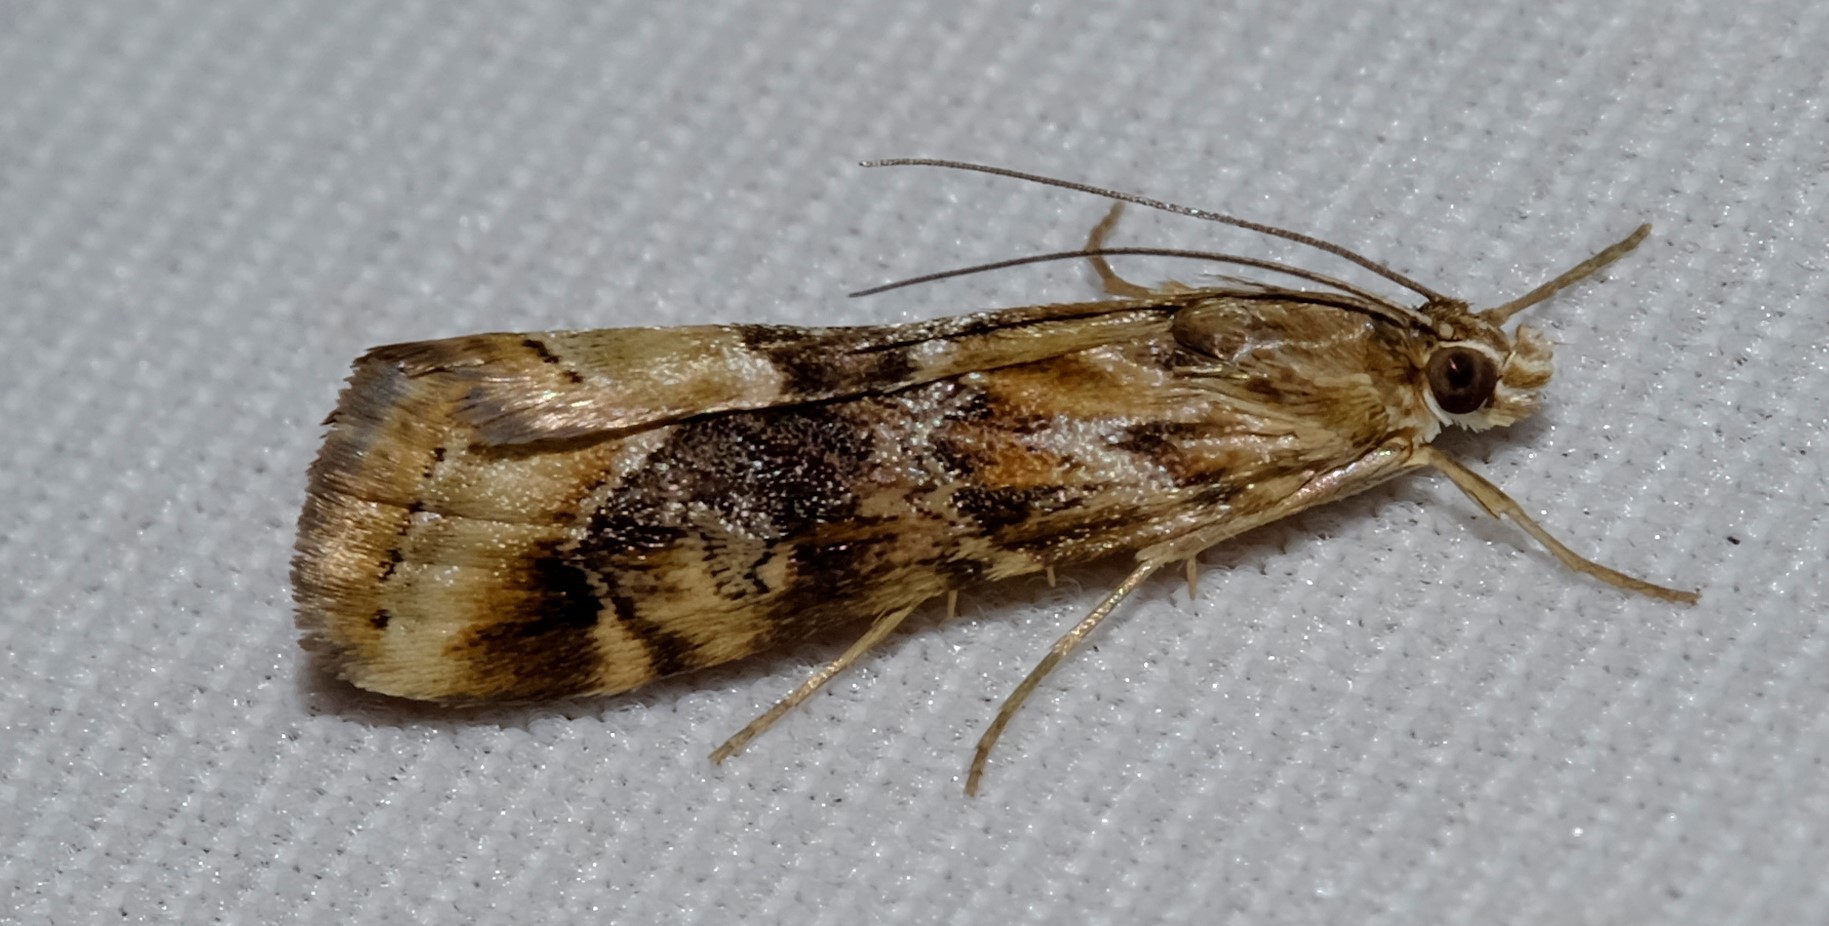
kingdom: Animalia
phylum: Arthropoda
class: Insecta
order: Lepidoptera
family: Crambidae
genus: Hellula
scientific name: Hellula hydralis
